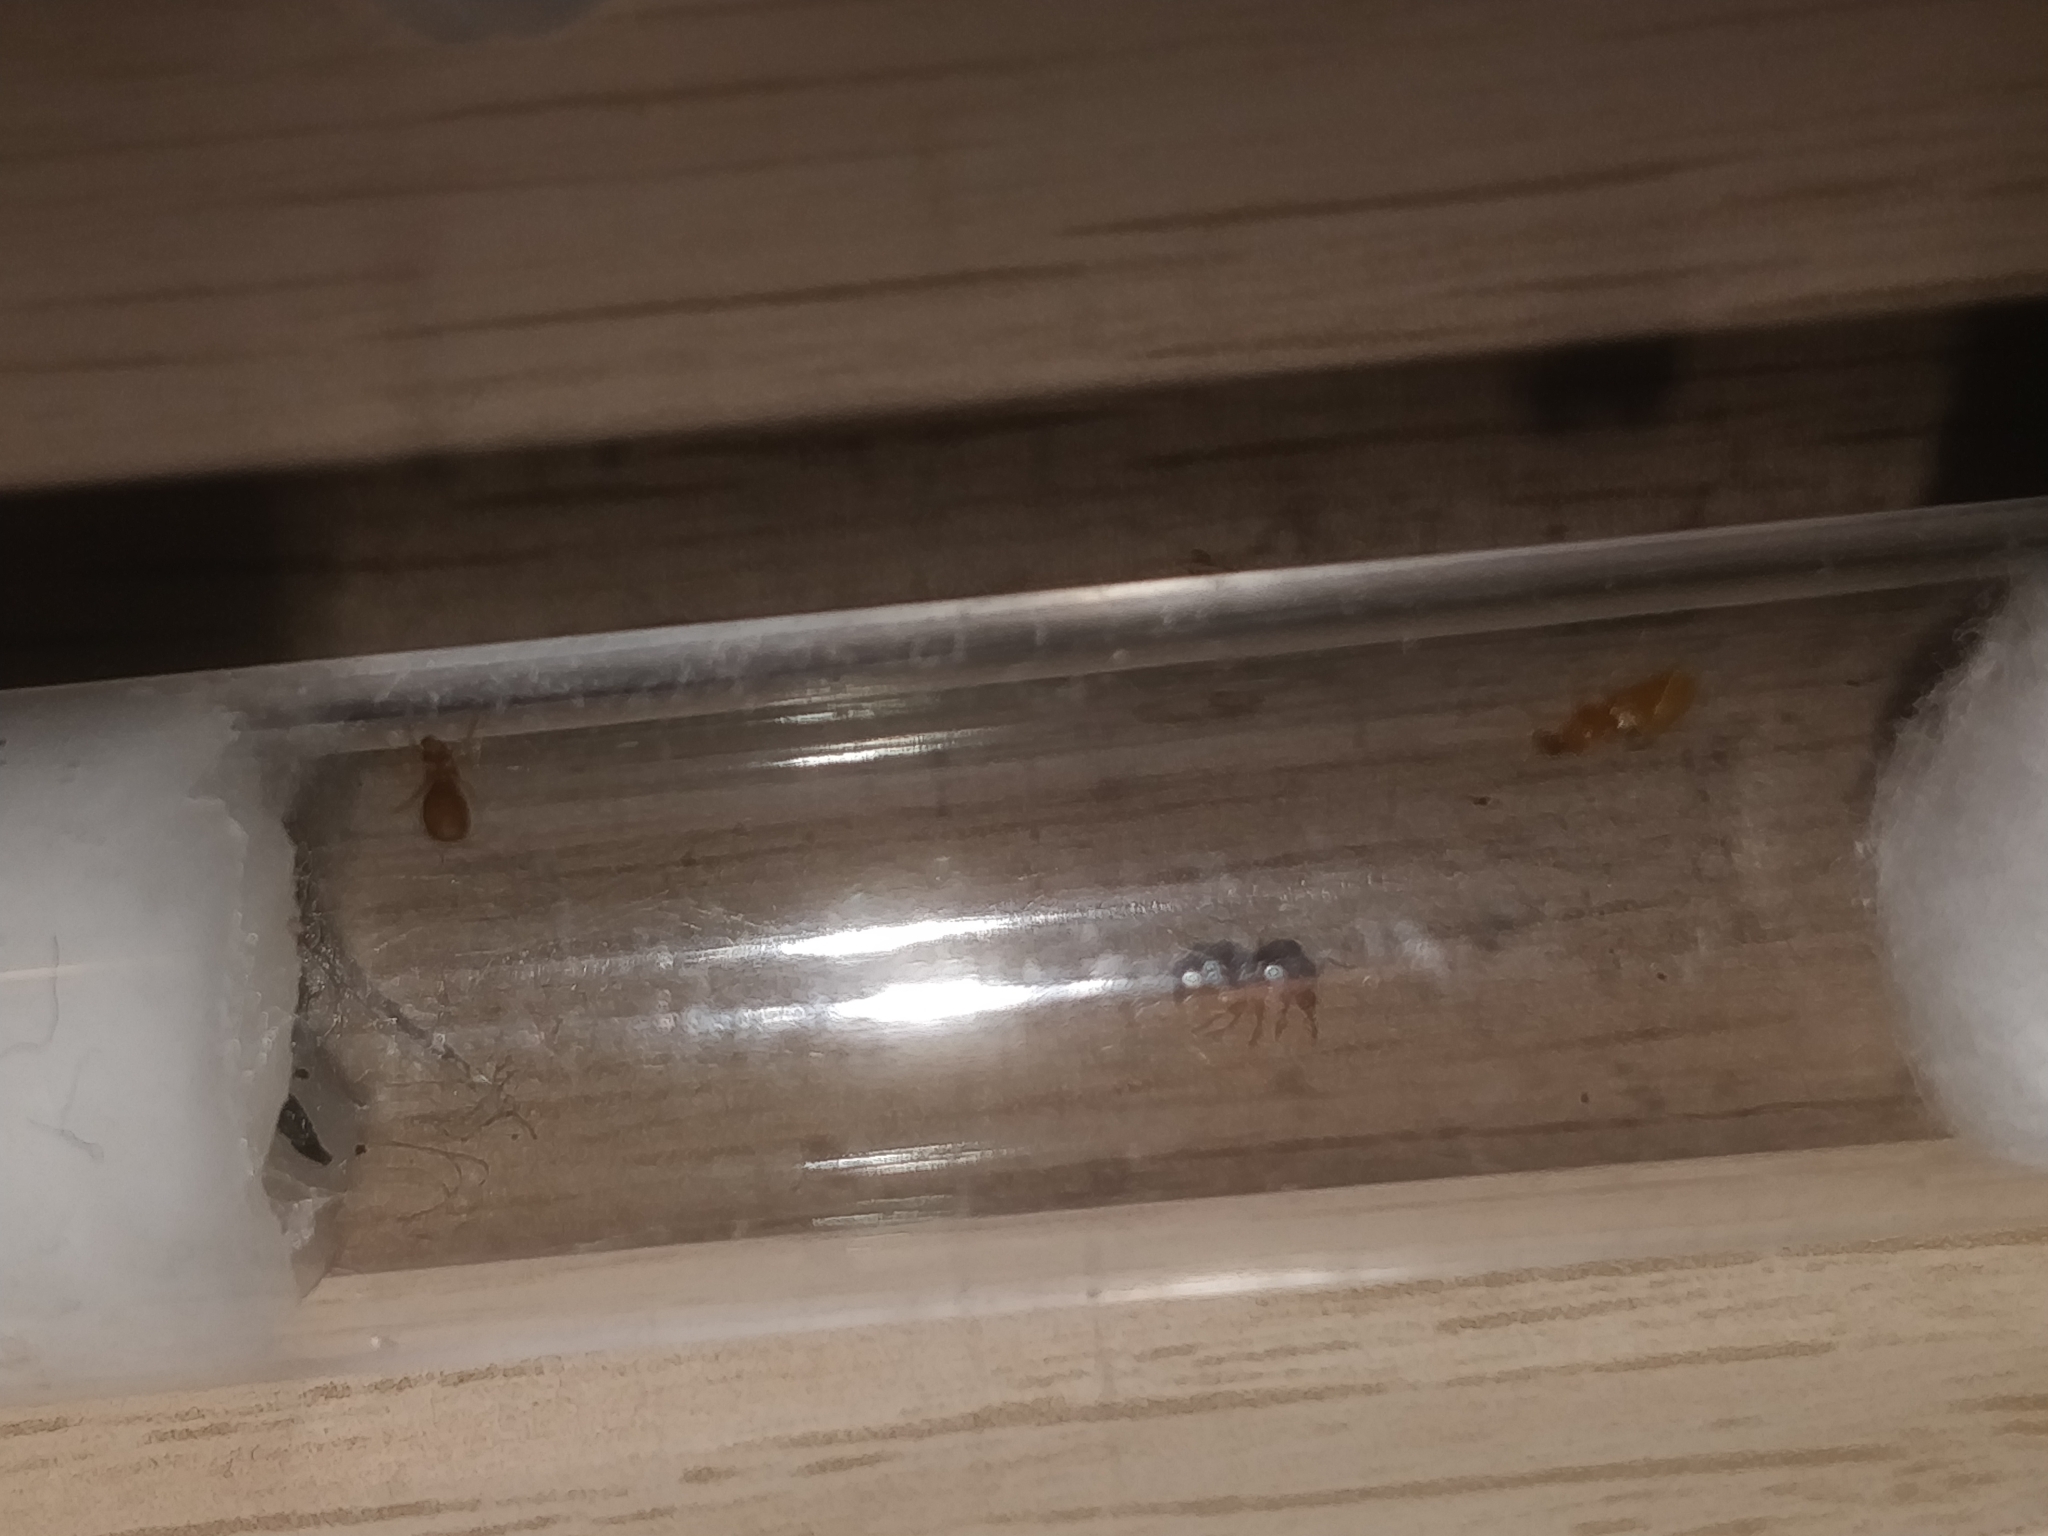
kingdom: Animalia
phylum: Arthropoda
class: Insecta
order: Hymenoptera
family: Formicidae
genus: Brachymyrmex
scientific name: Brachymyrmex depilis
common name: Hairless rover ant
